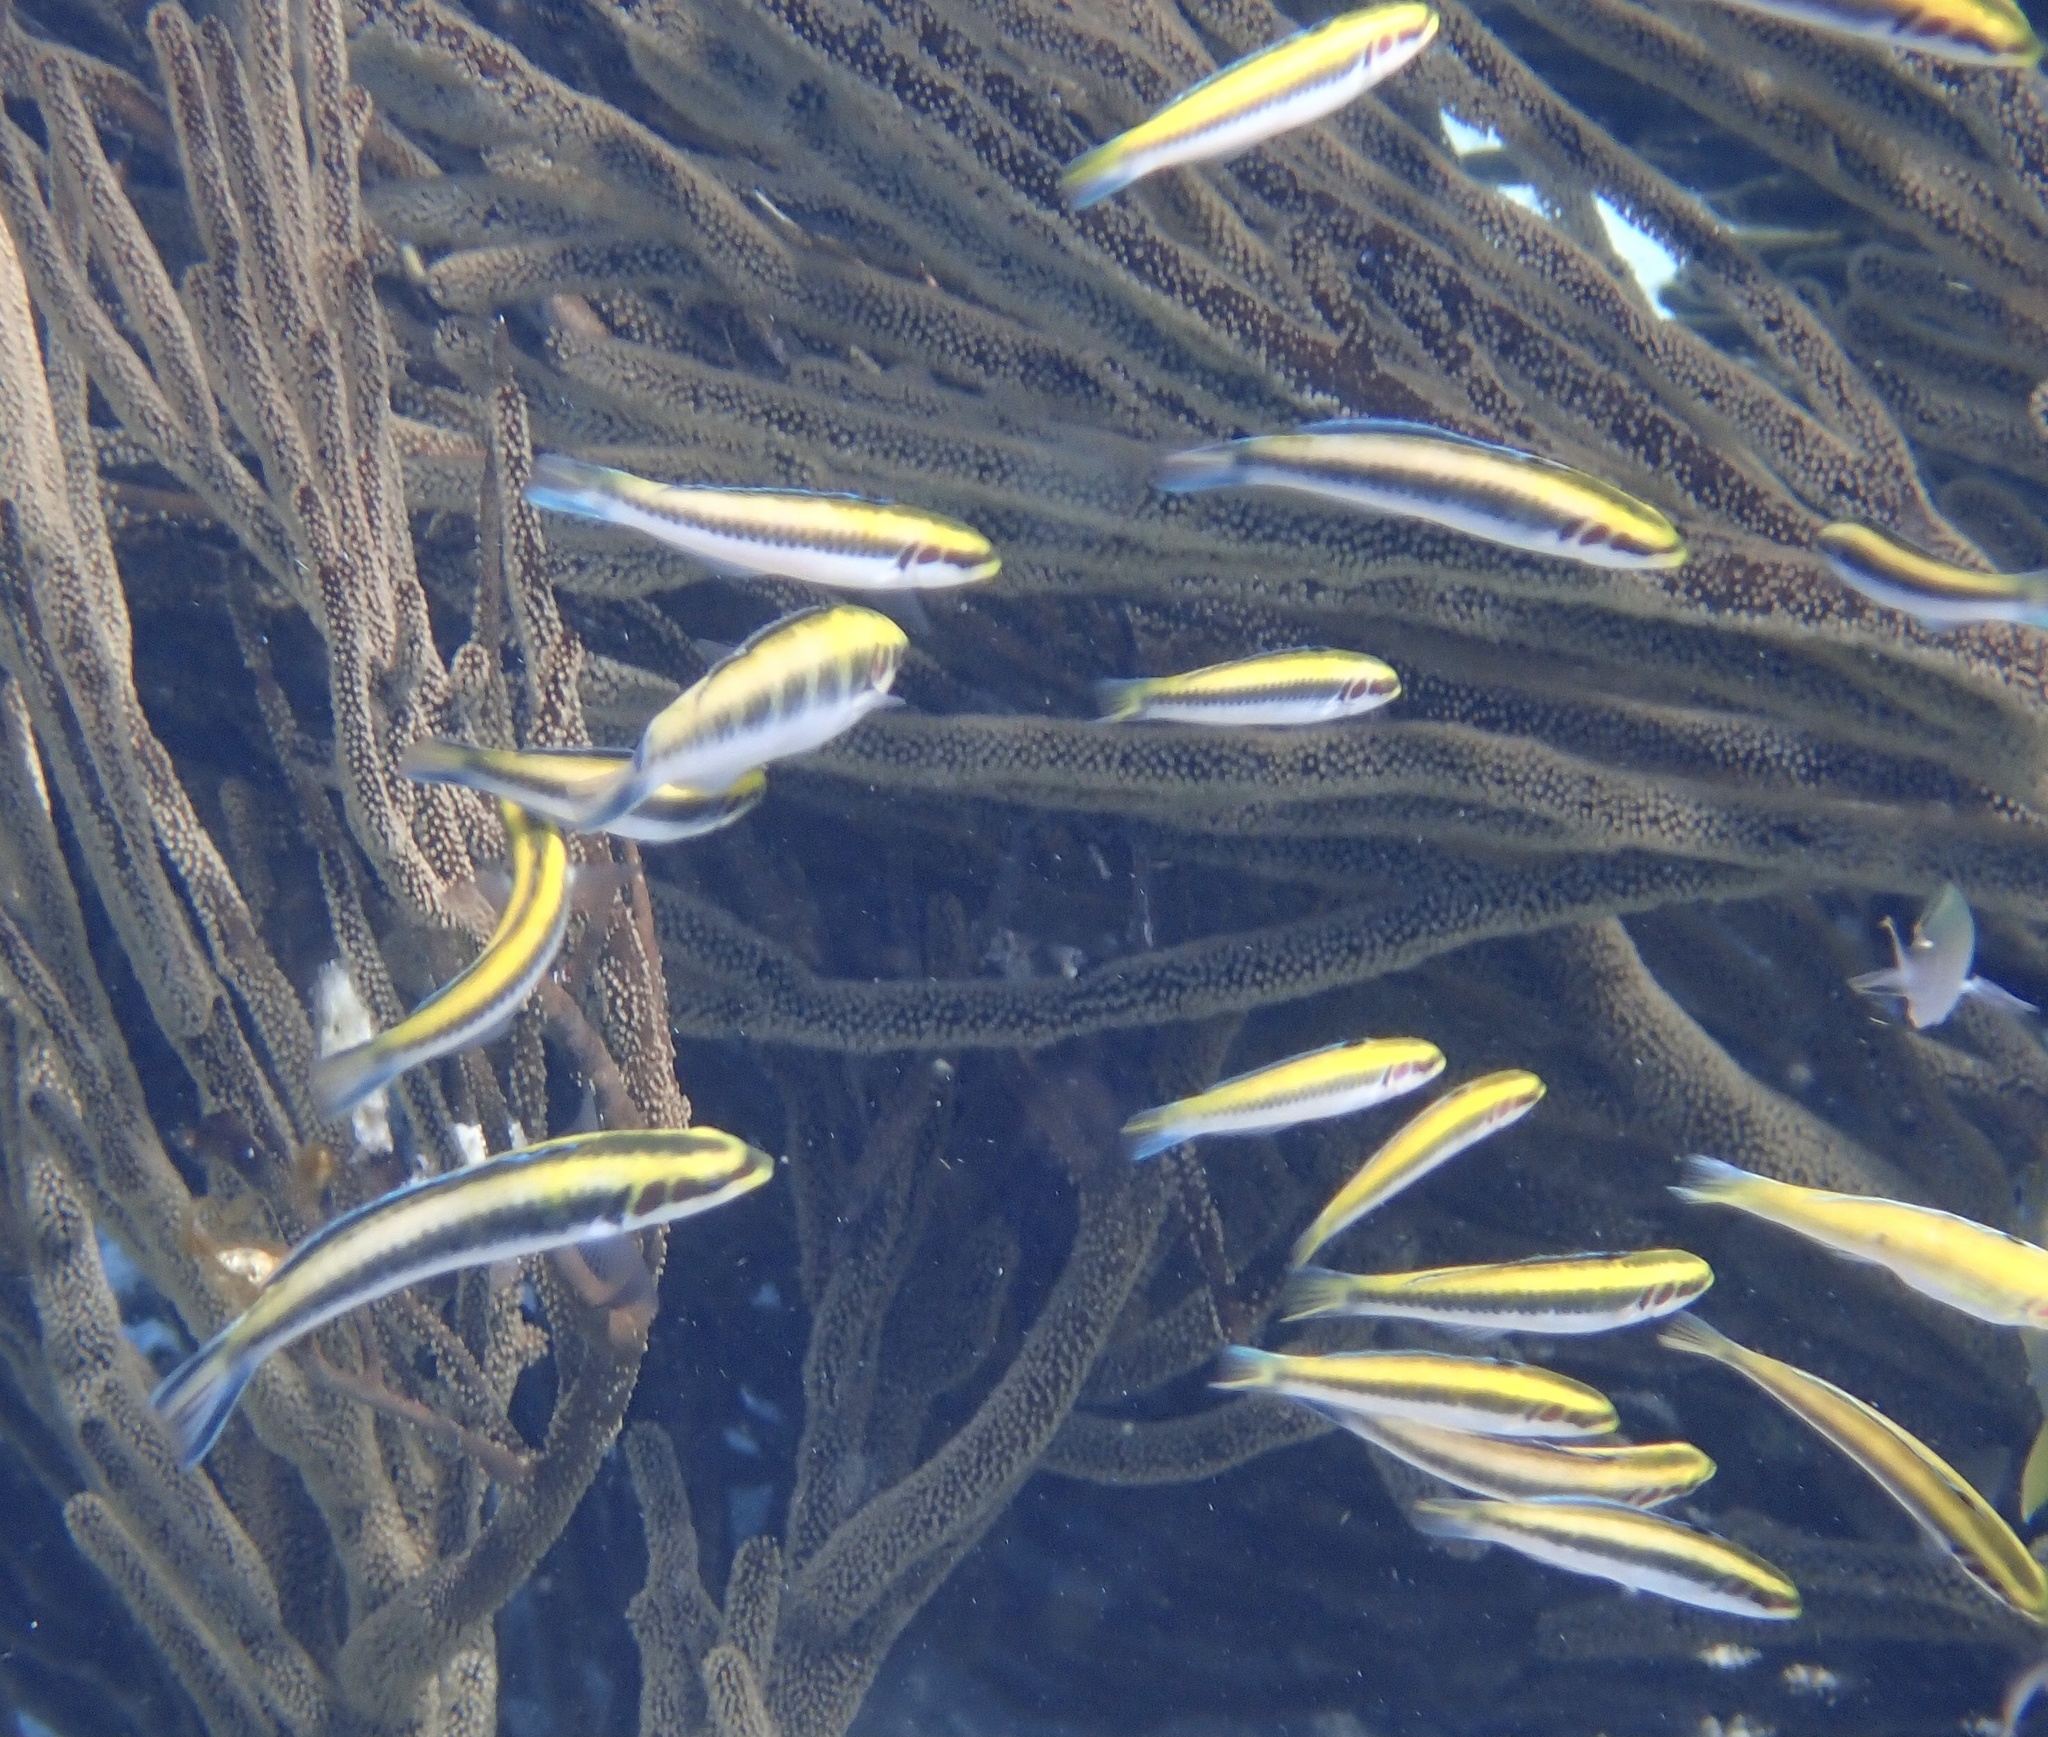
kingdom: Animalia
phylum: Chordata
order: Perciformes
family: Labridae
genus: Thalassoma
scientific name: Thalassoma bifasciatum
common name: Bluehead wrasse
